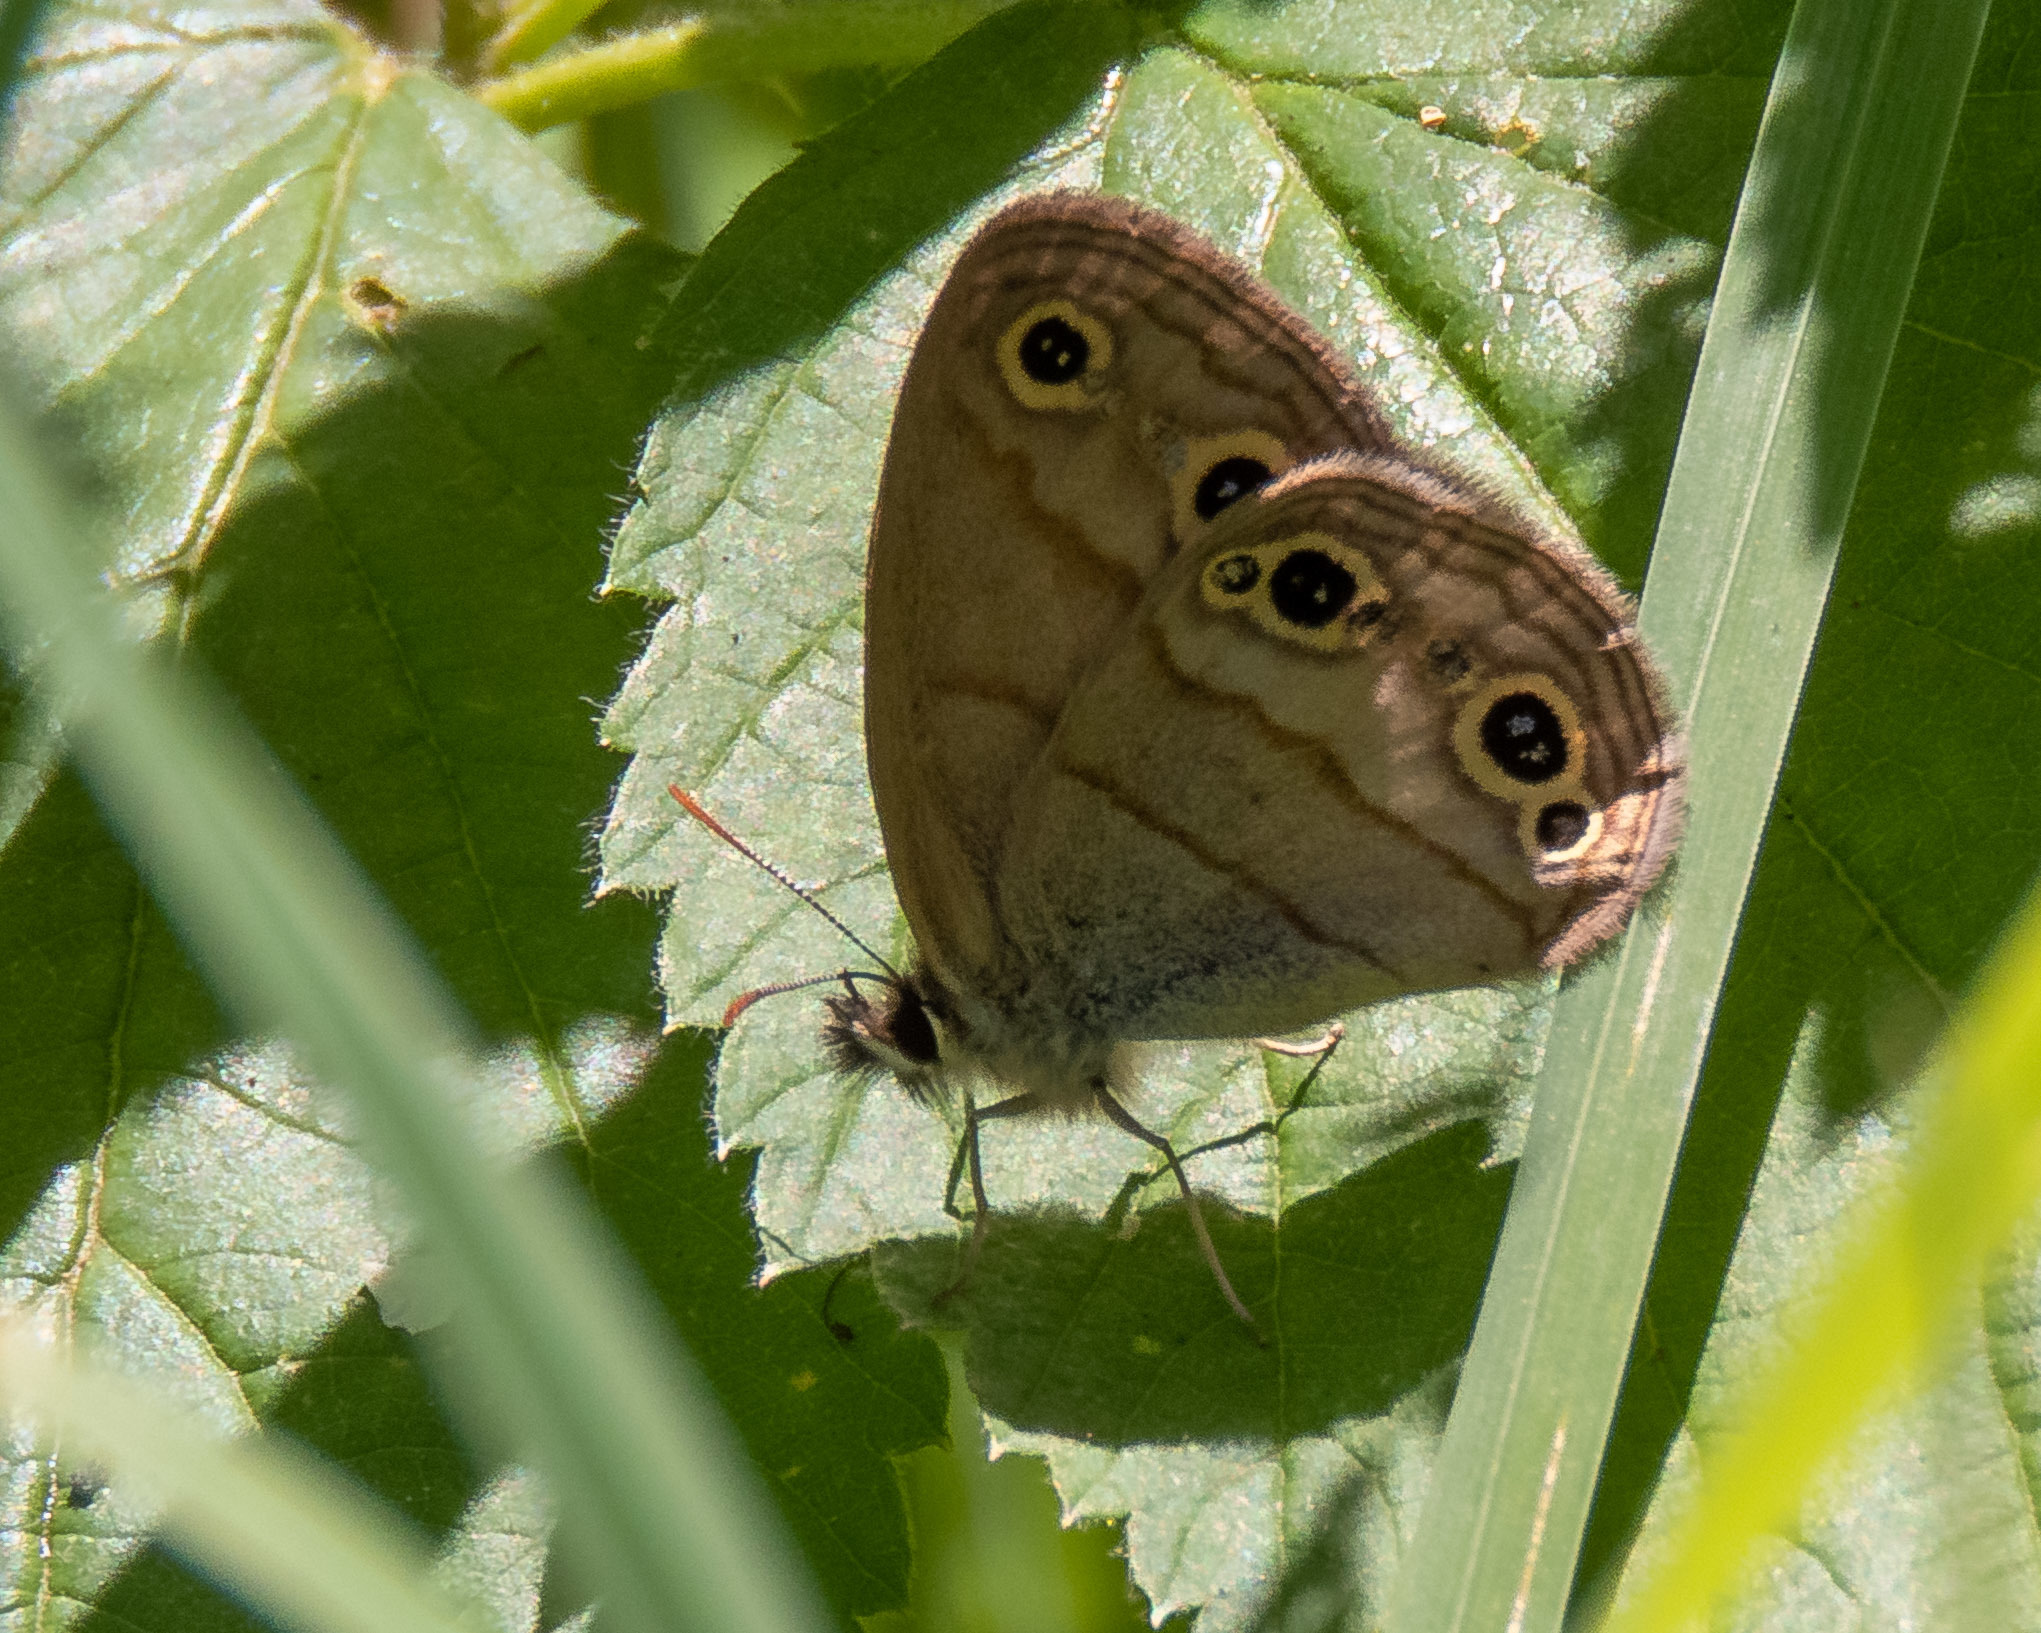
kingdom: Animalia
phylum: Arthropoda
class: Insecta
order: Lepidoptera
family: Nymphalidae
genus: Euptychia
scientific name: Euptychia cymela
